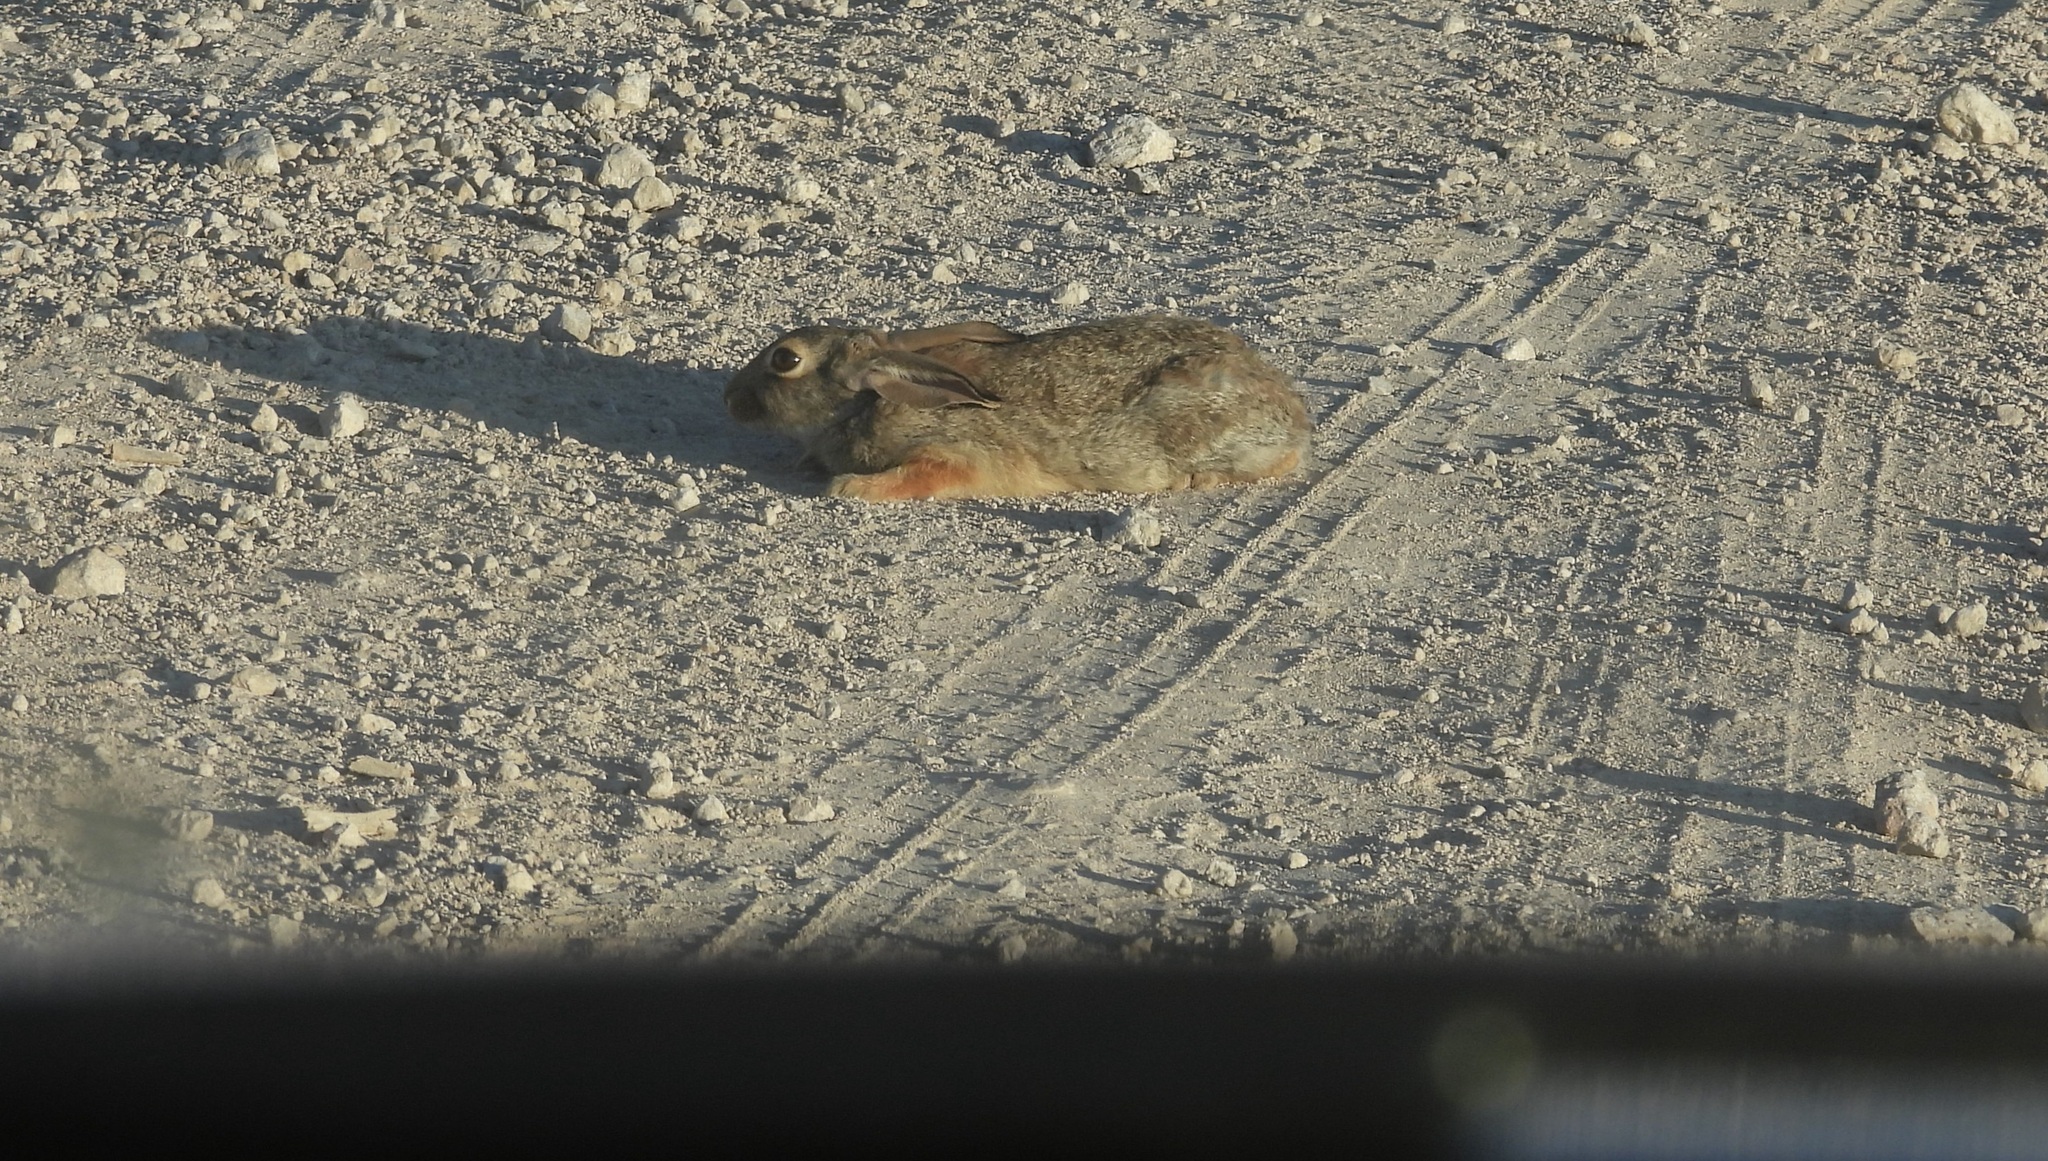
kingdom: Animalia
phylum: Chordata
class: Mammalia
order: Lagomorpha
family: Leporidae
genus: Sylvilagus
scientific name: Sylvilagus audubonii
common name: Desert cottontail
